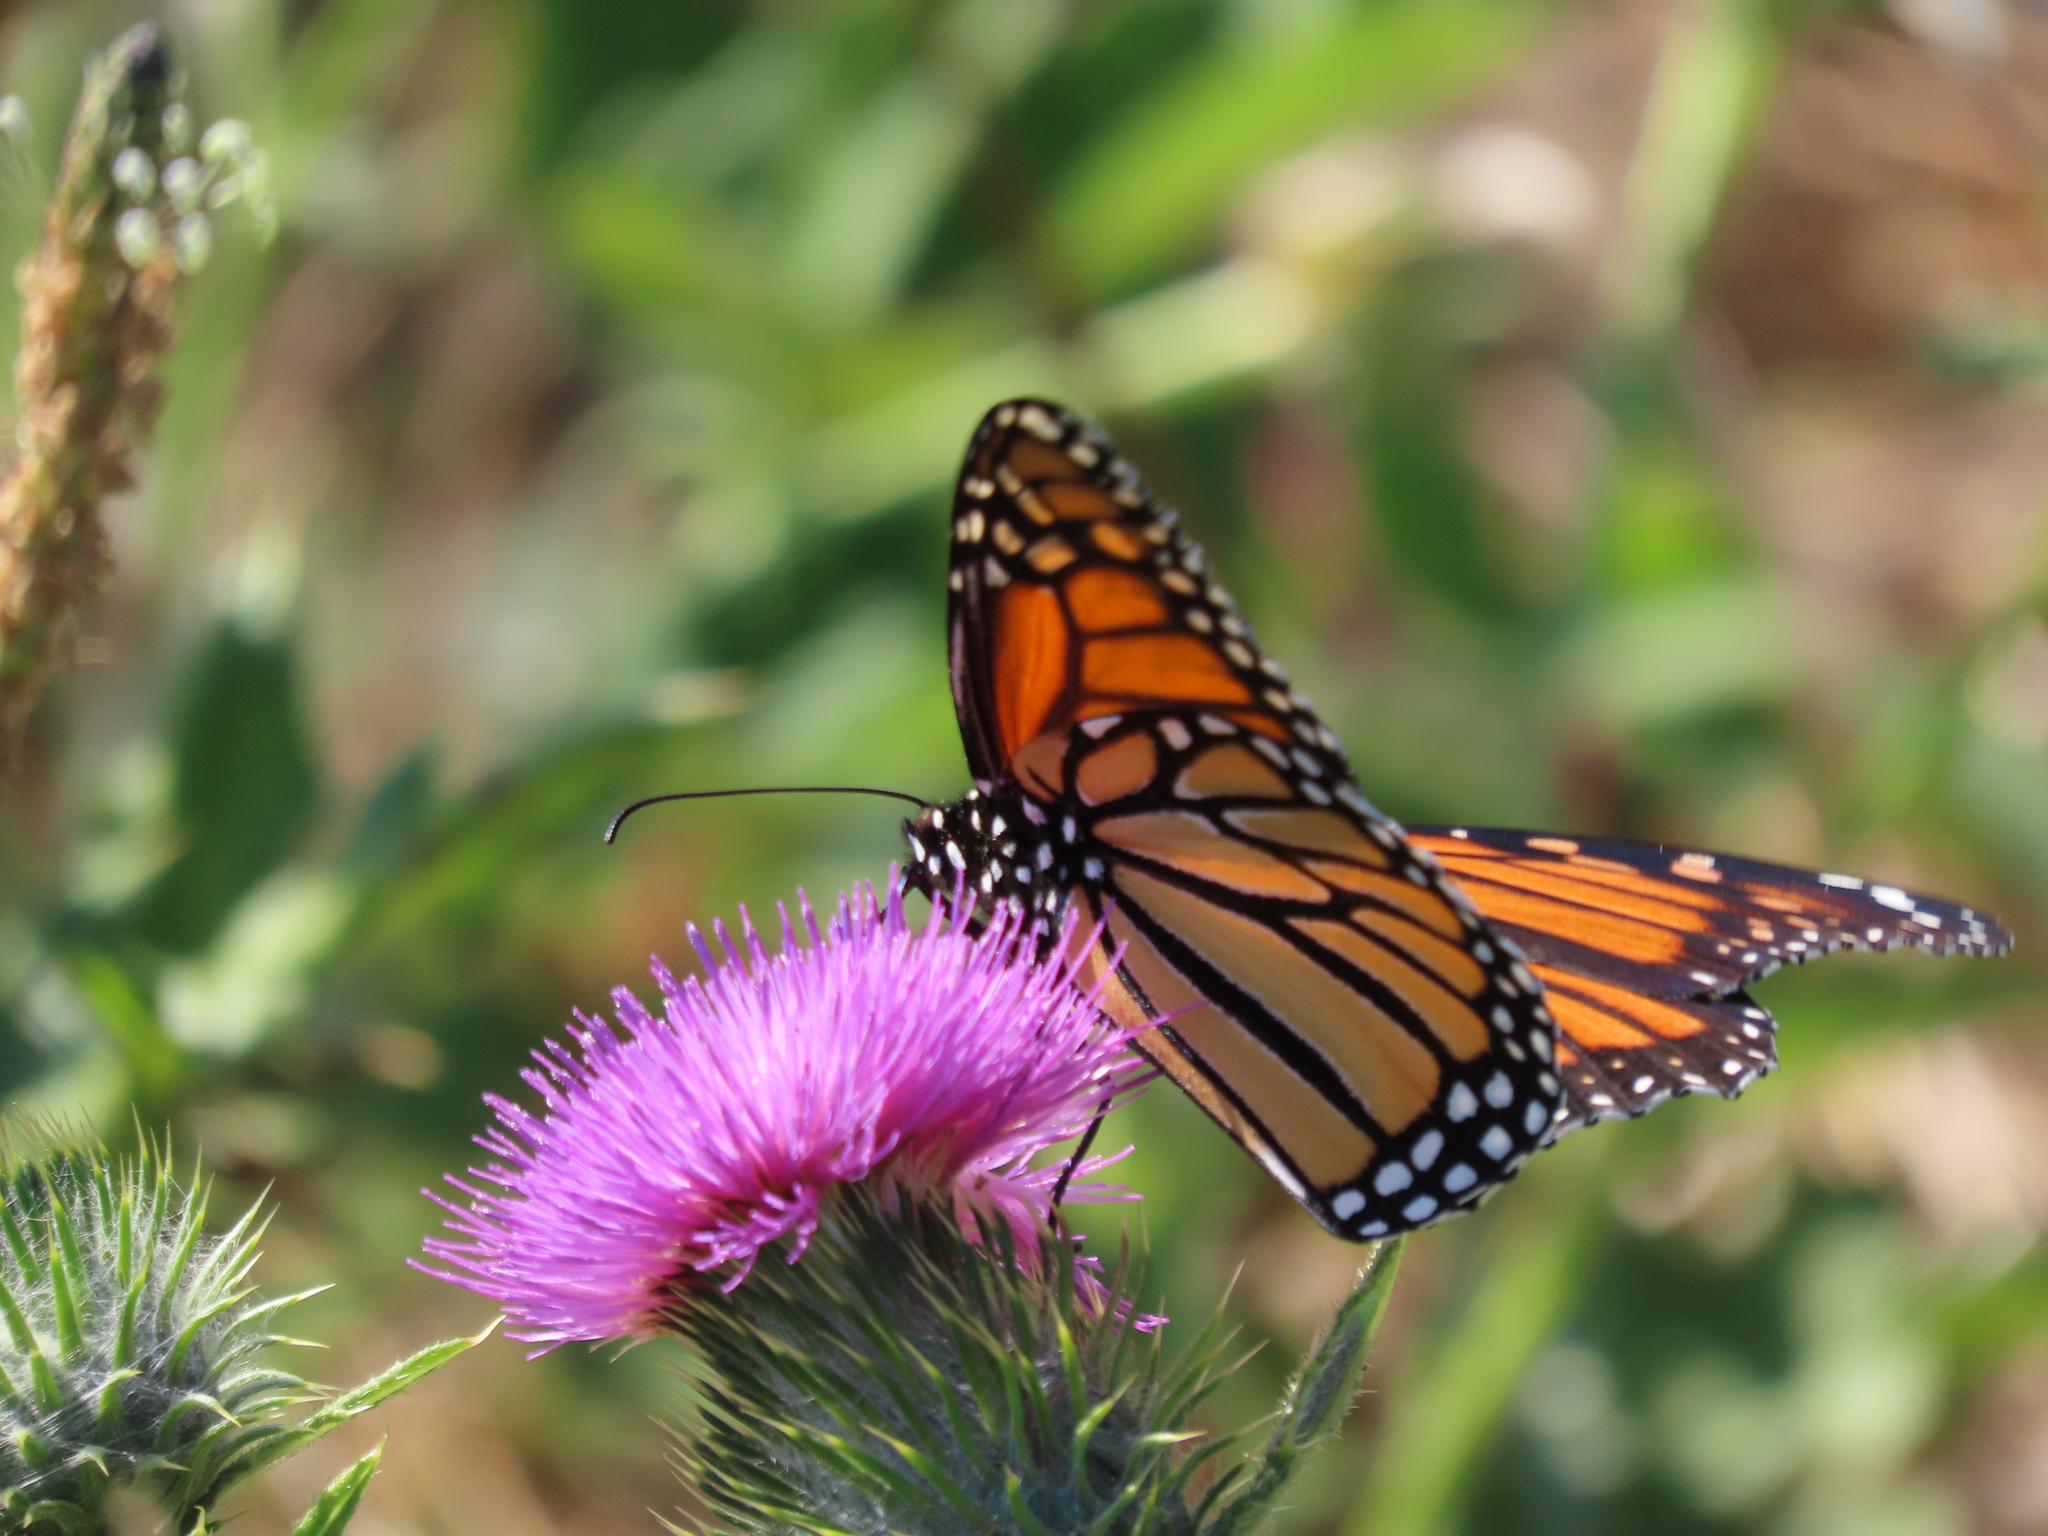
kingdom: Animalia
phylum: Arthropoda
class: Insecta
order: Lepidoptera
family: Nymphalidae
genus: Danaus
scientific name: Danaus plexippus
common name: Monarch
